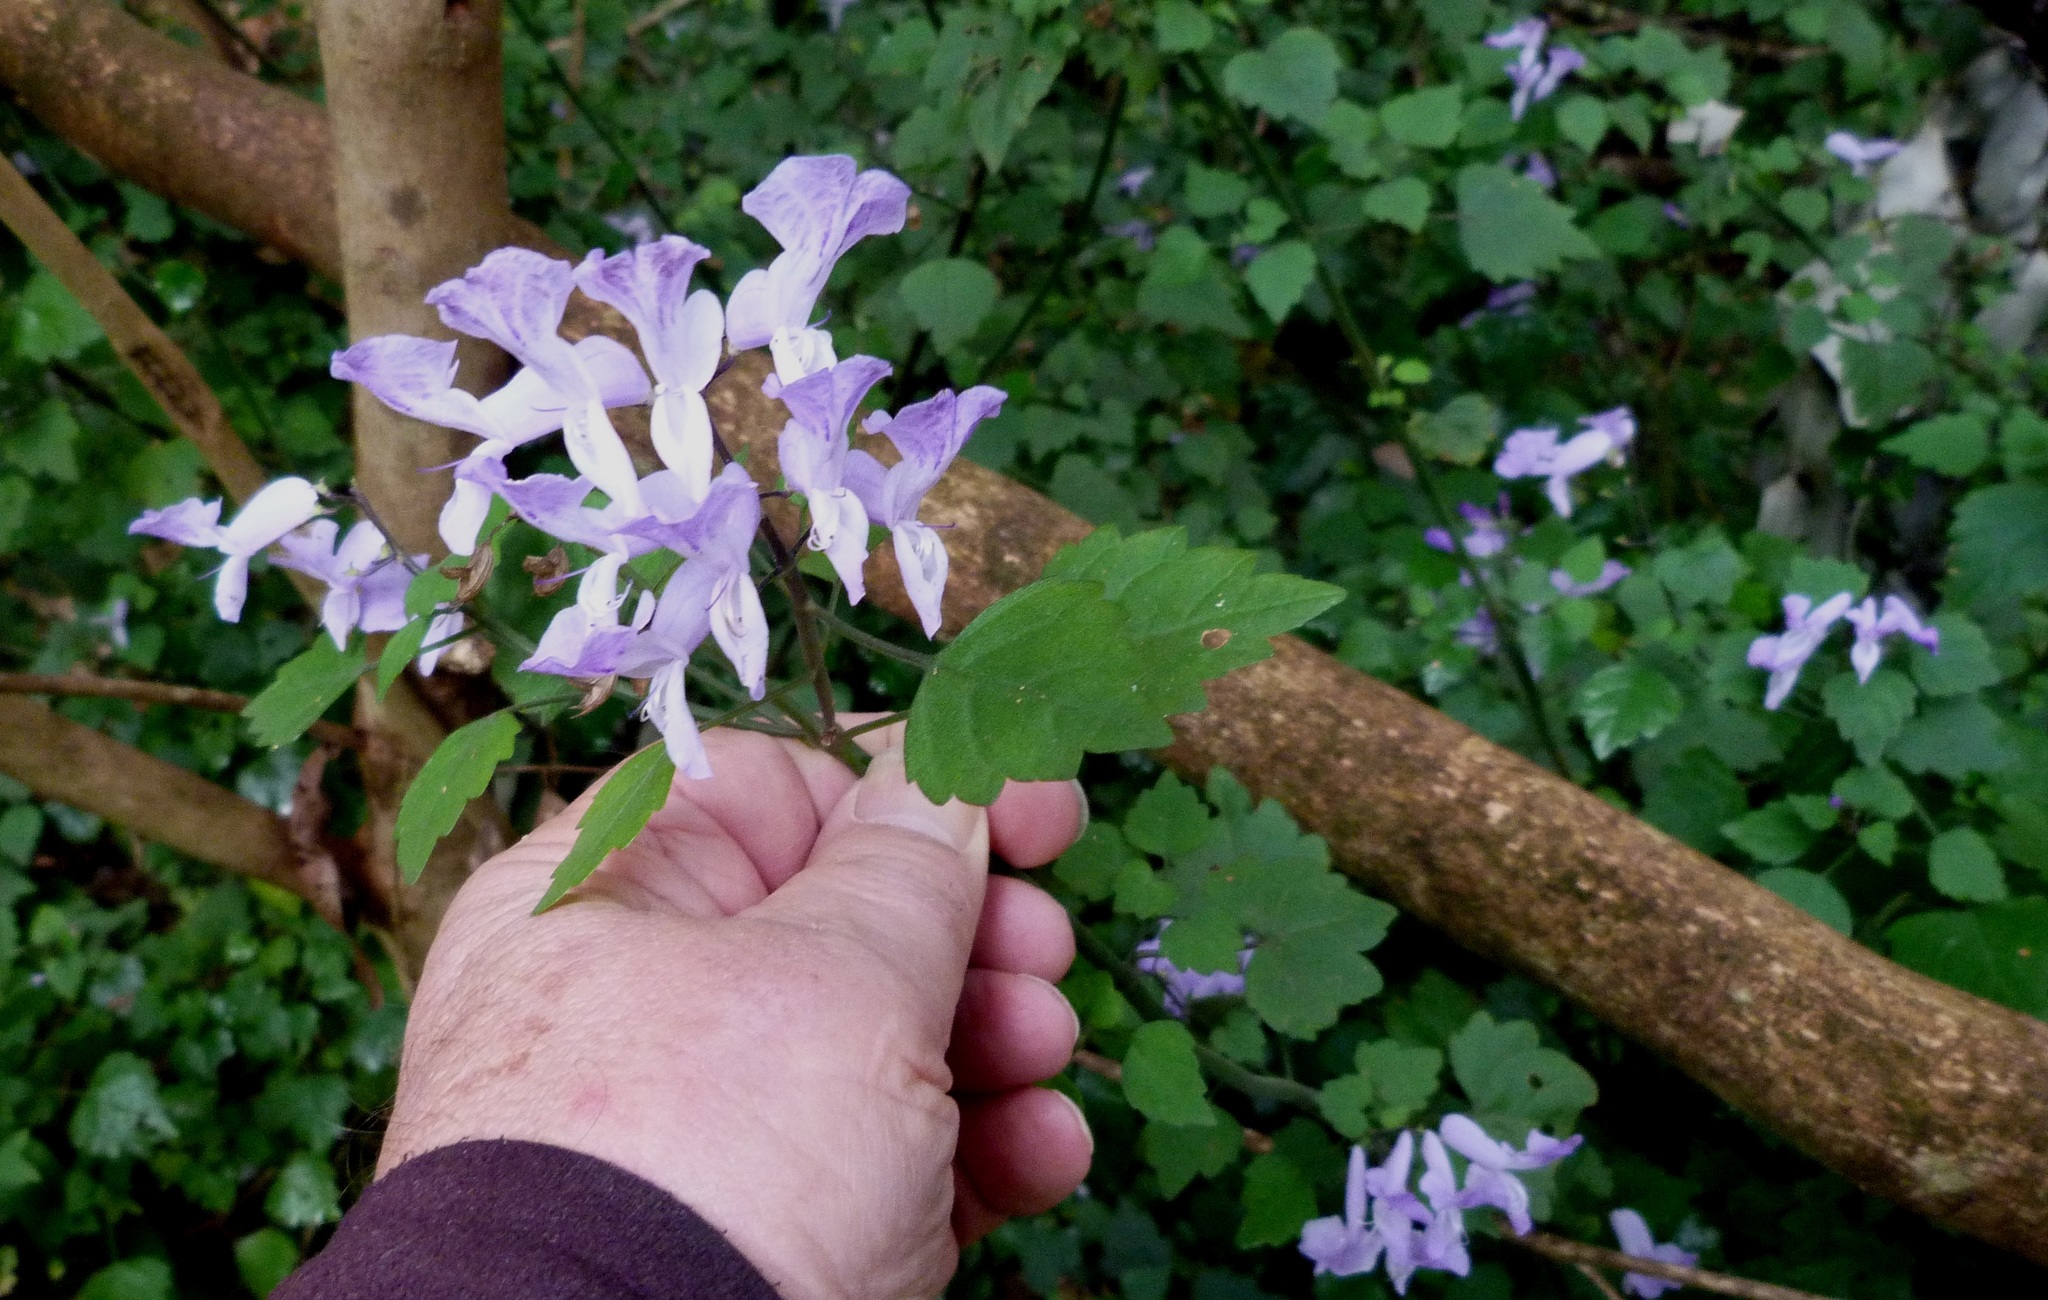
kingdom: Plantae
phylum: Tracheophyta
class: Magnoliopsida
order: Lamiales
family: Lamiaceae
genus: Plectranthus
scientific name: Plectranthus saccatus
